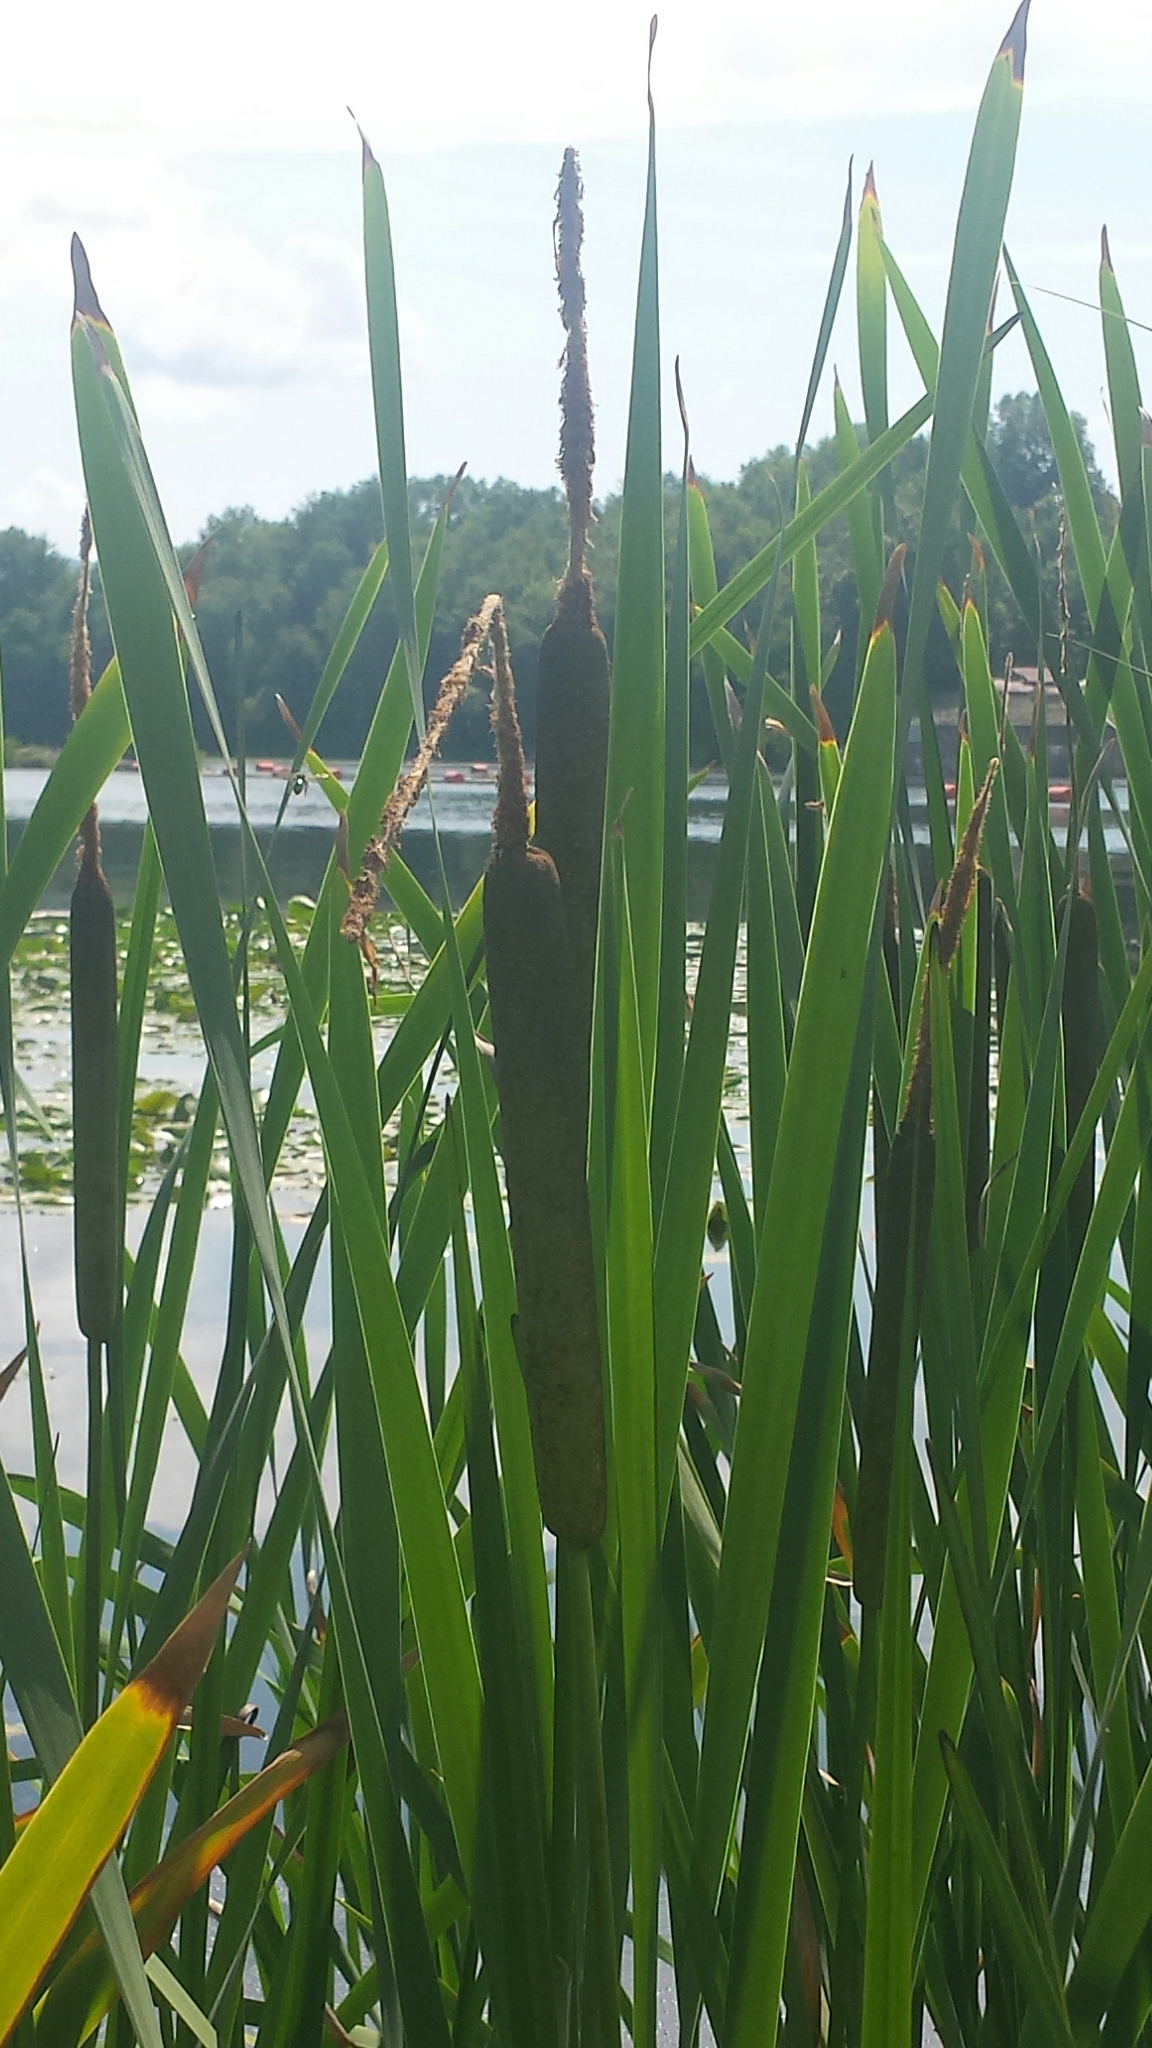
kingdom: Plantae
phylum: Tracheophyta
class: Liliopsida
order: Poales
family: Typhaceae
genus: Typha
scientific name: Typha latifolia
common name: Broadleaf cattail
